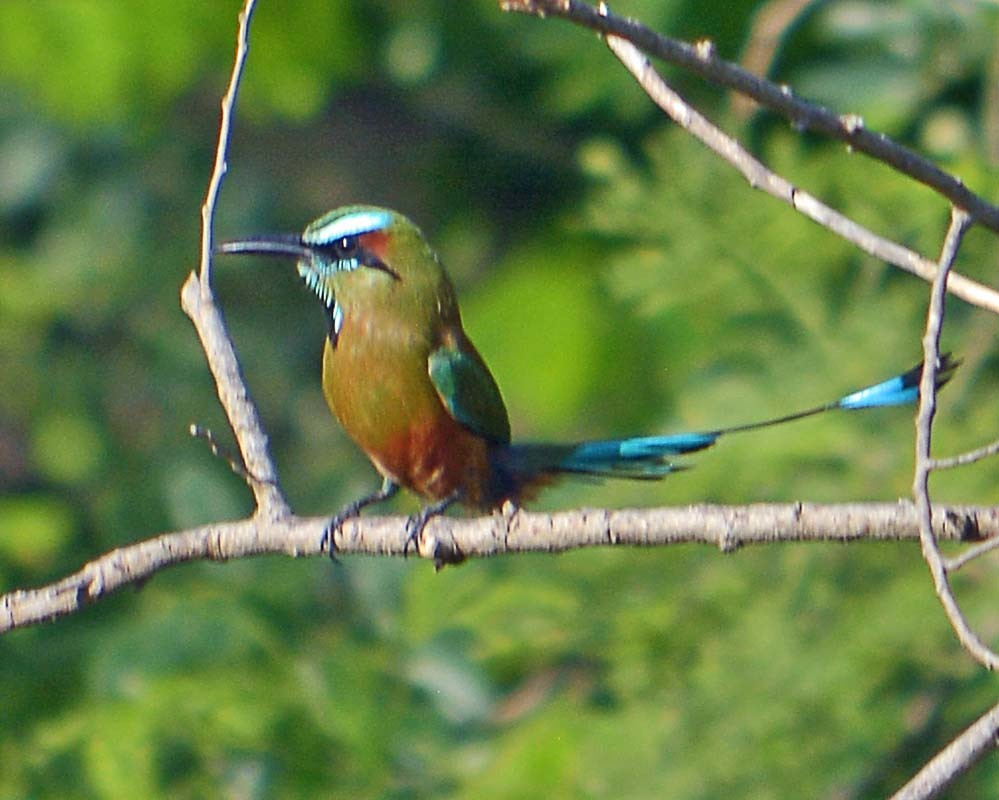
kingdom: Animalia
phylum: Chordata
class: Aves
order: Coraciiformes
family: Momotidae
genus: Eumomota
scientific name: Eumomota superciliosa
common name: Turquoise-browed motmot
